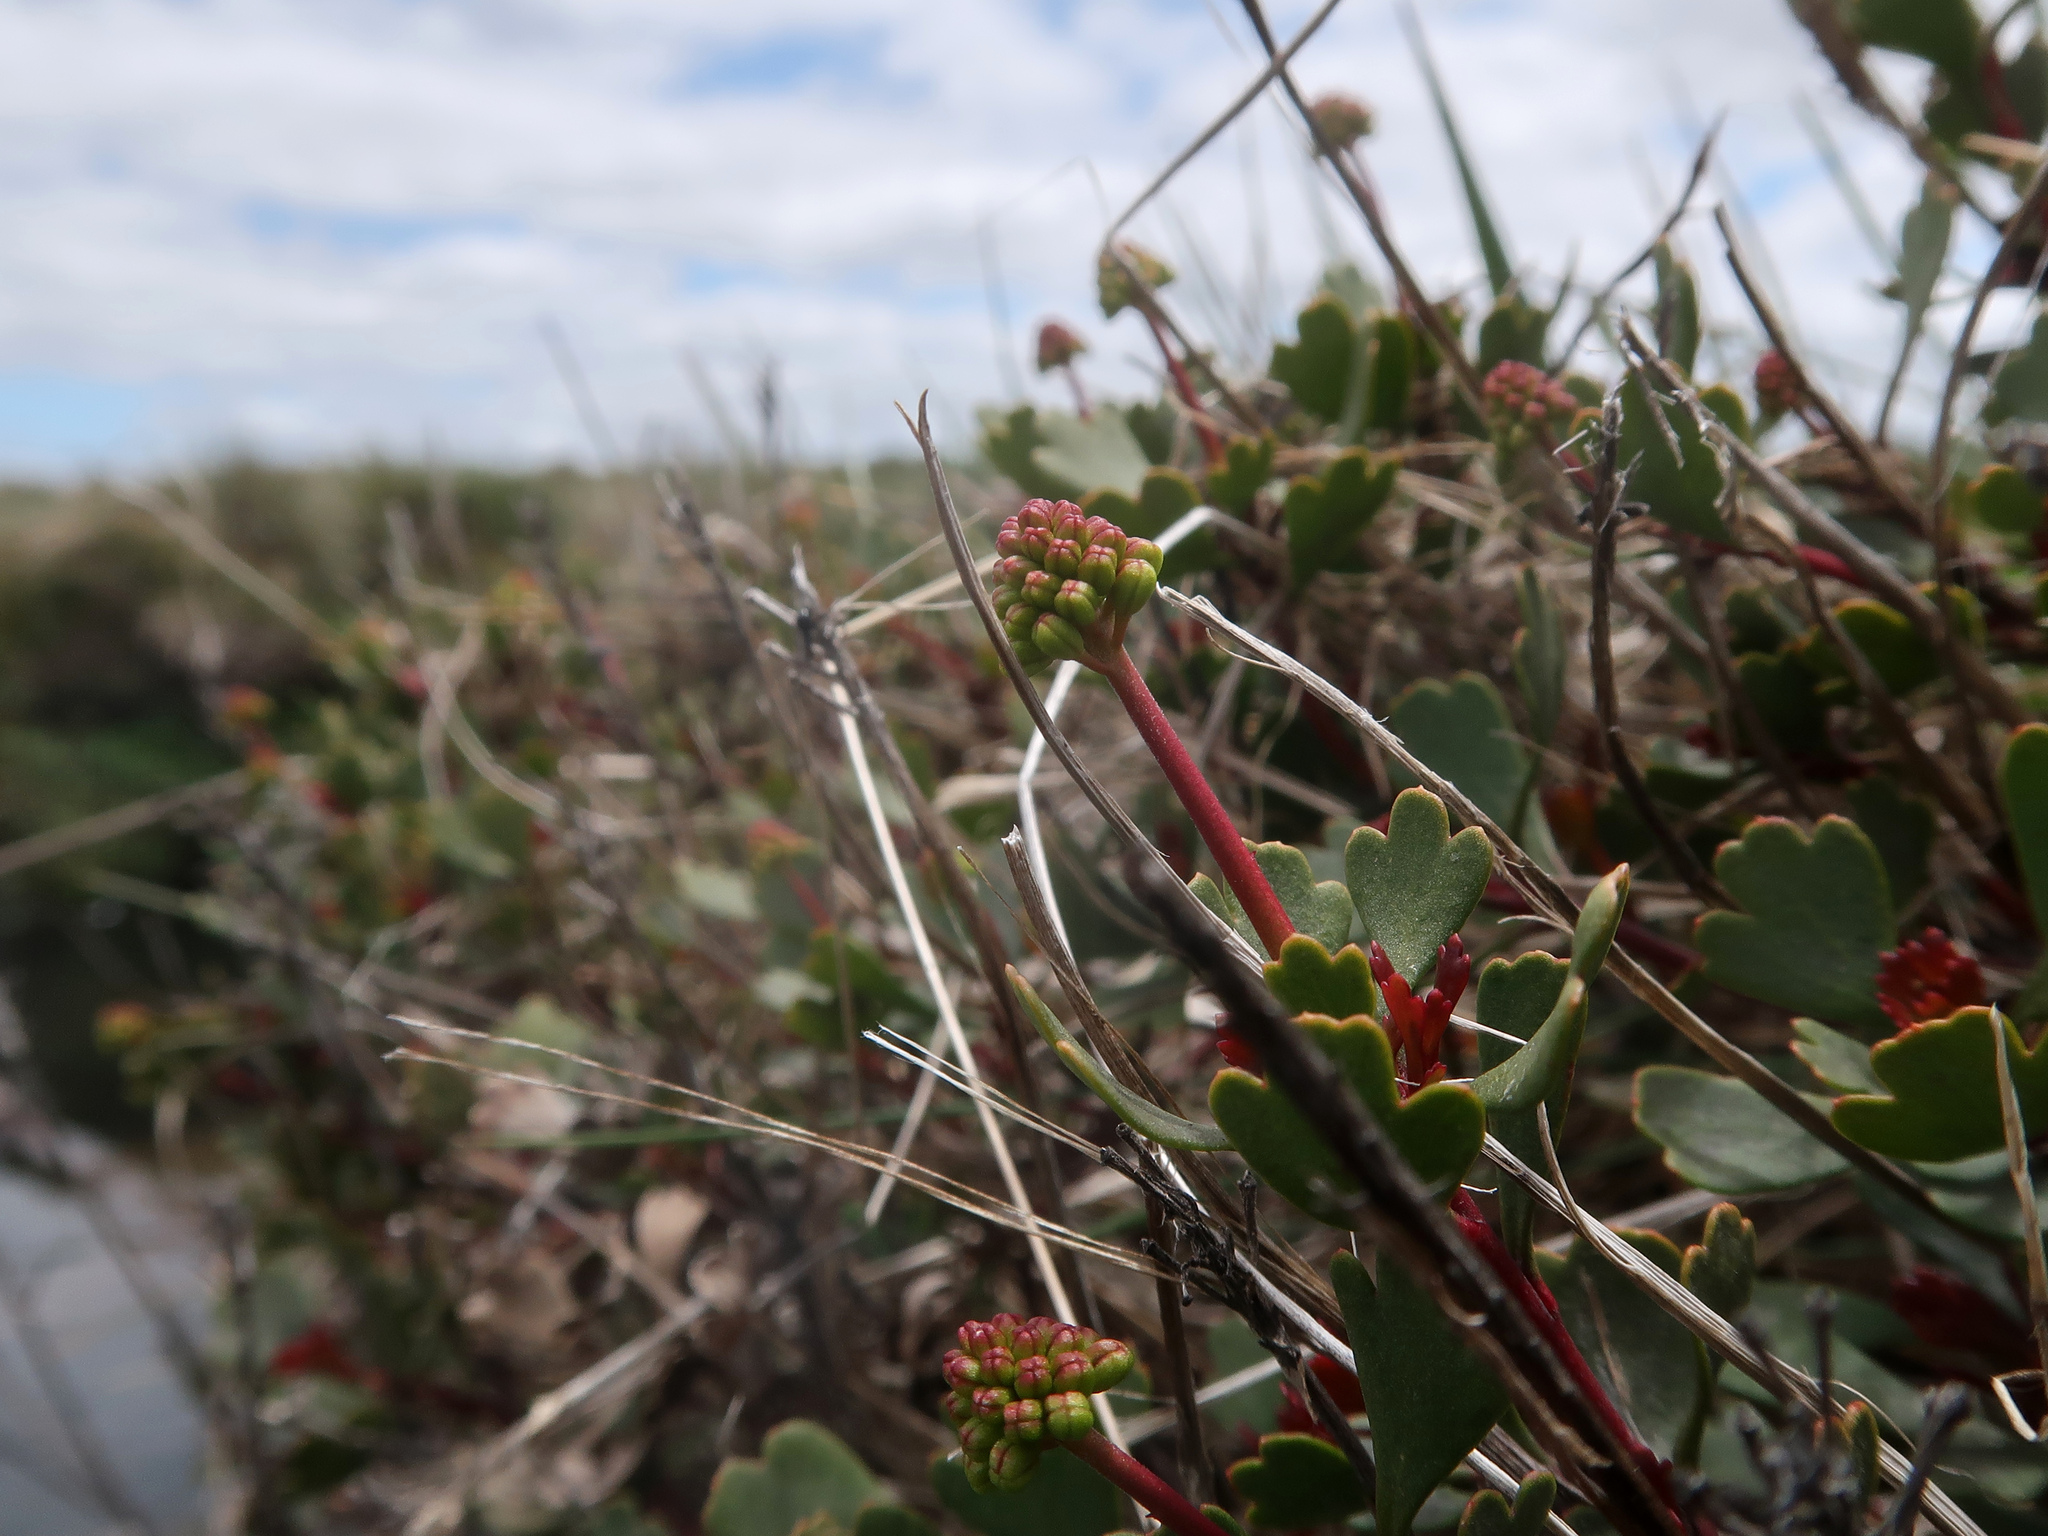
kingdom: Plantae
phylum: Tracheophyta
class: Magnoliopsida
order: Proteales
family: Proteaceae
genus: Bellendena
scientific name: Bellendena montana
